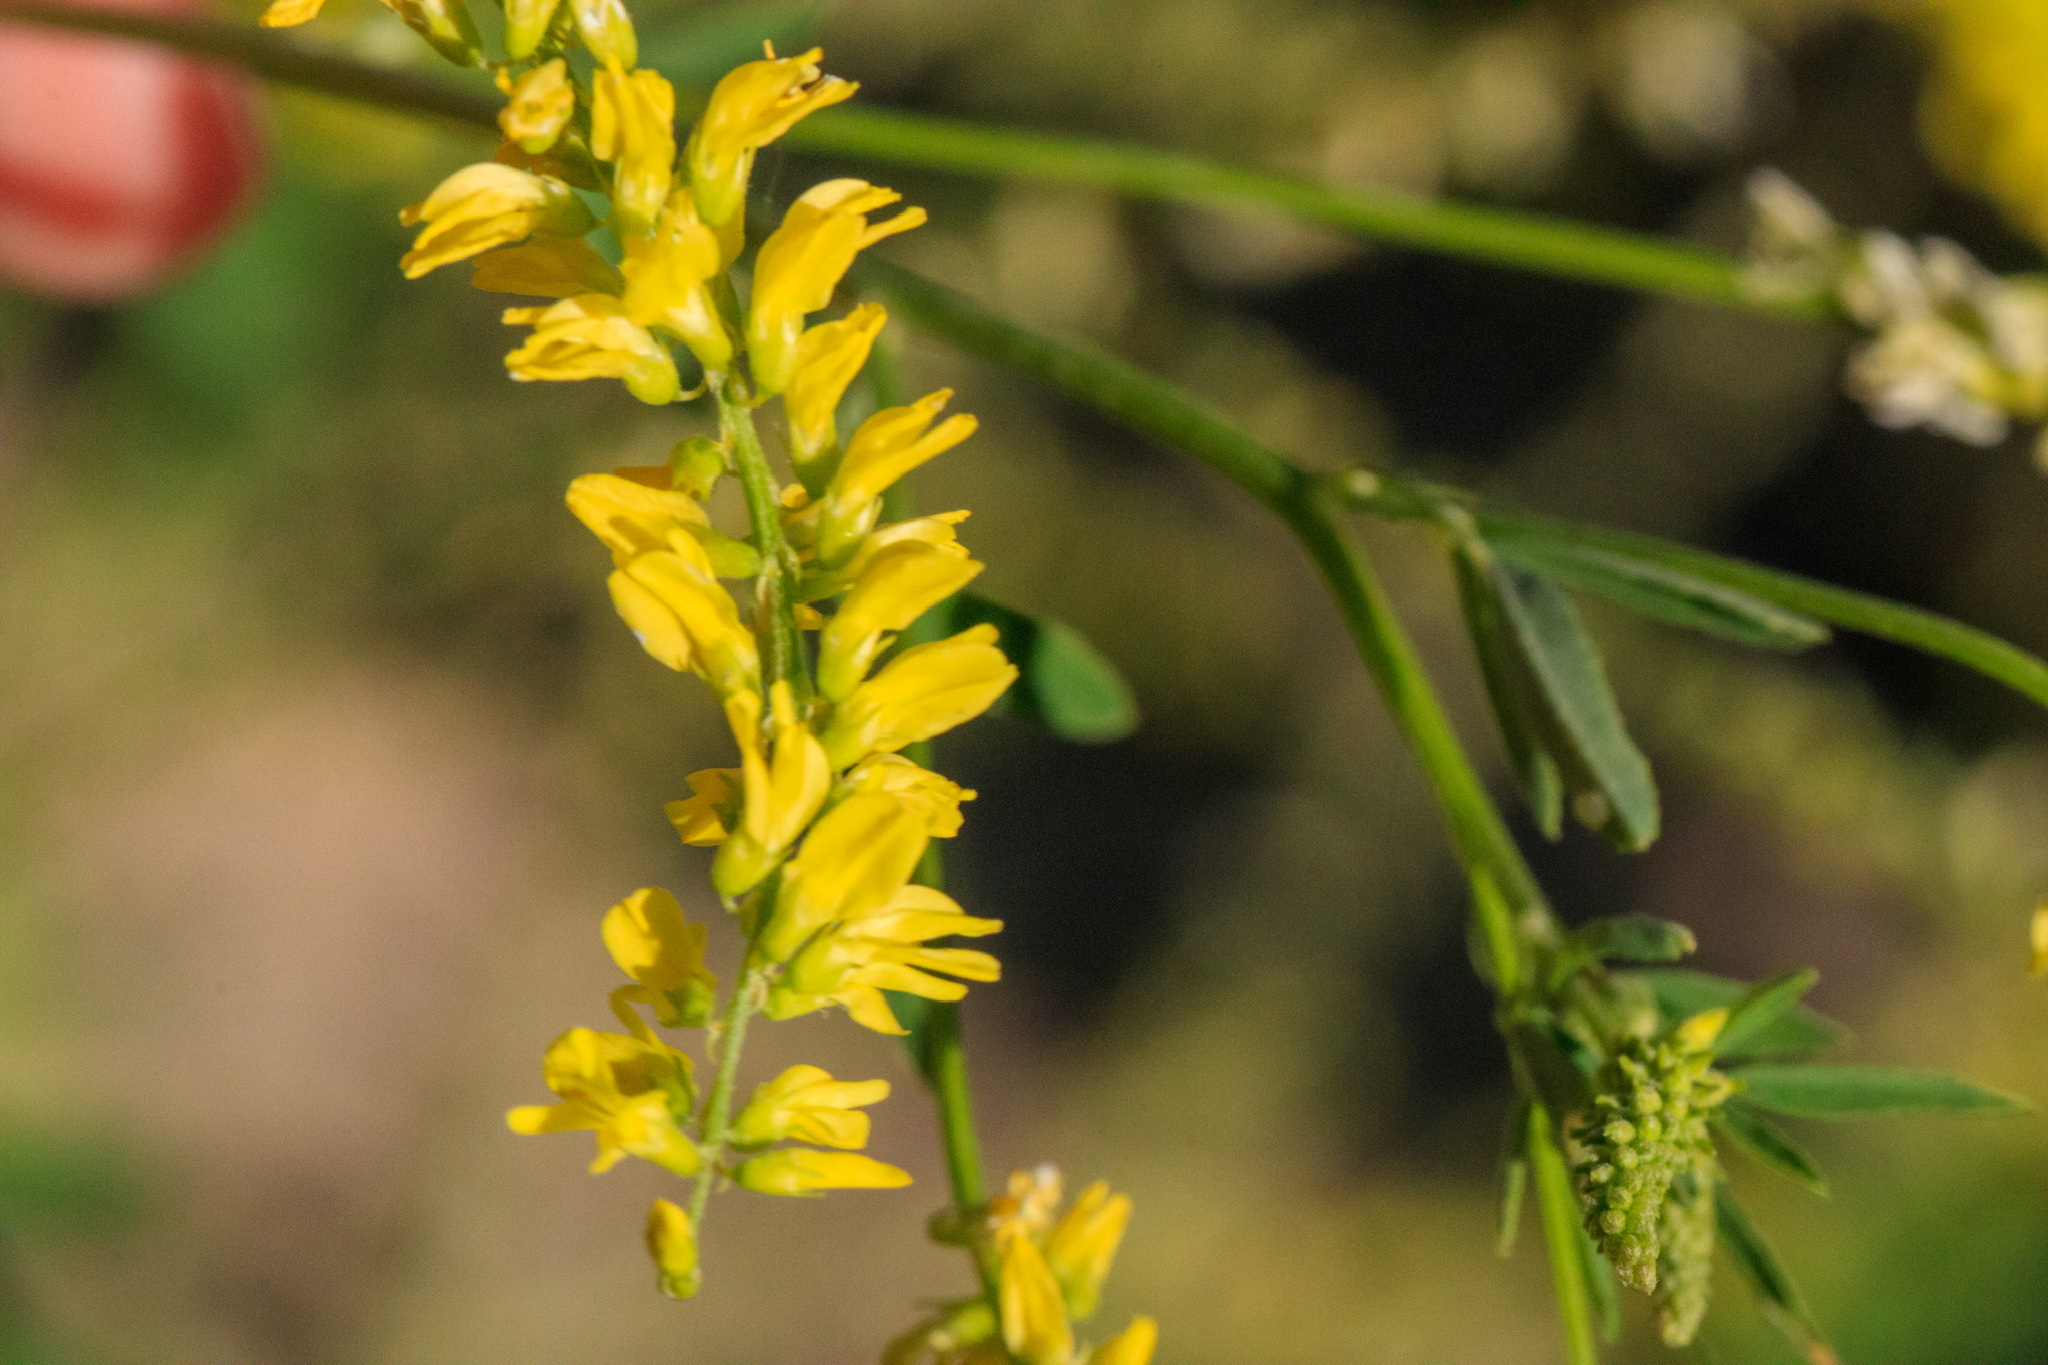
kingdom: Plantae
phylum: Tracheophyta
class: Magnoliopsida
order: Fabales
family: Fabaceae
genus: Melilotus
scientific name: Melilotus officinalis
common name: Sweetclover
